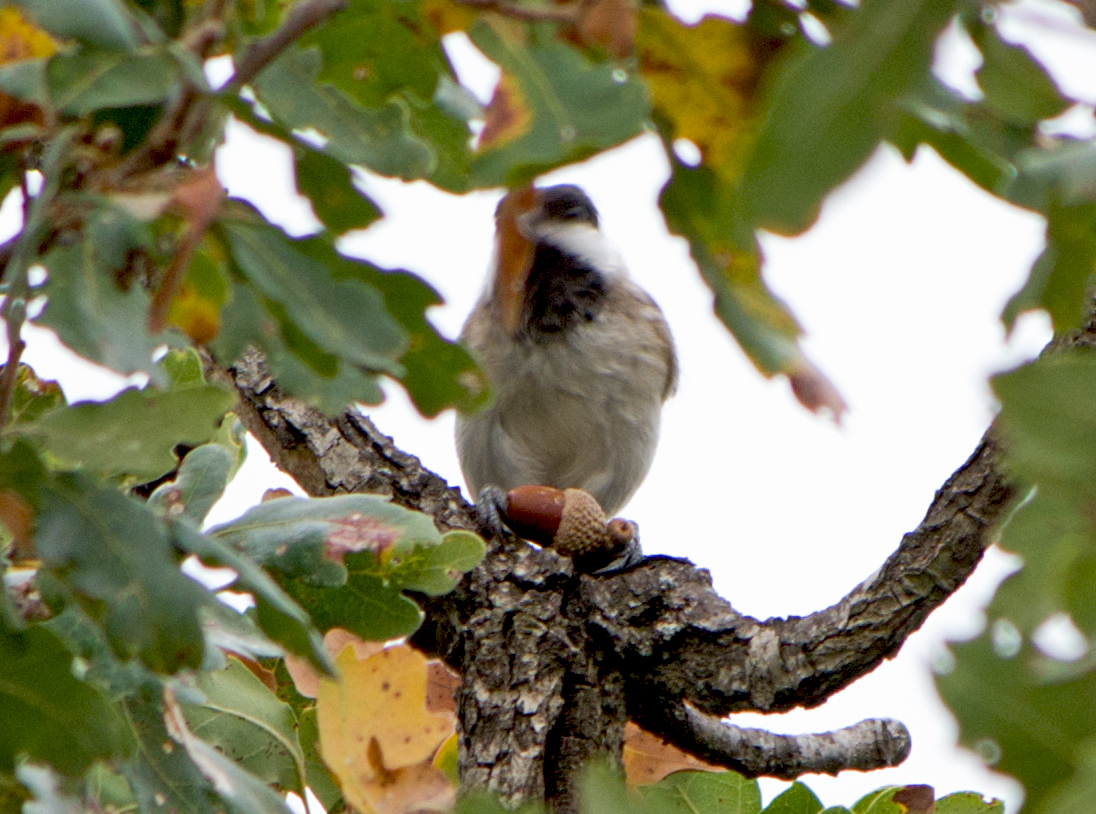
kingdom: Animalia
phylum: Chordata
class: Aves
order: Passeriformes
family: Paridae
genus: Poecile
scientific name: Poecile lugubris
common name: Sombre tit
